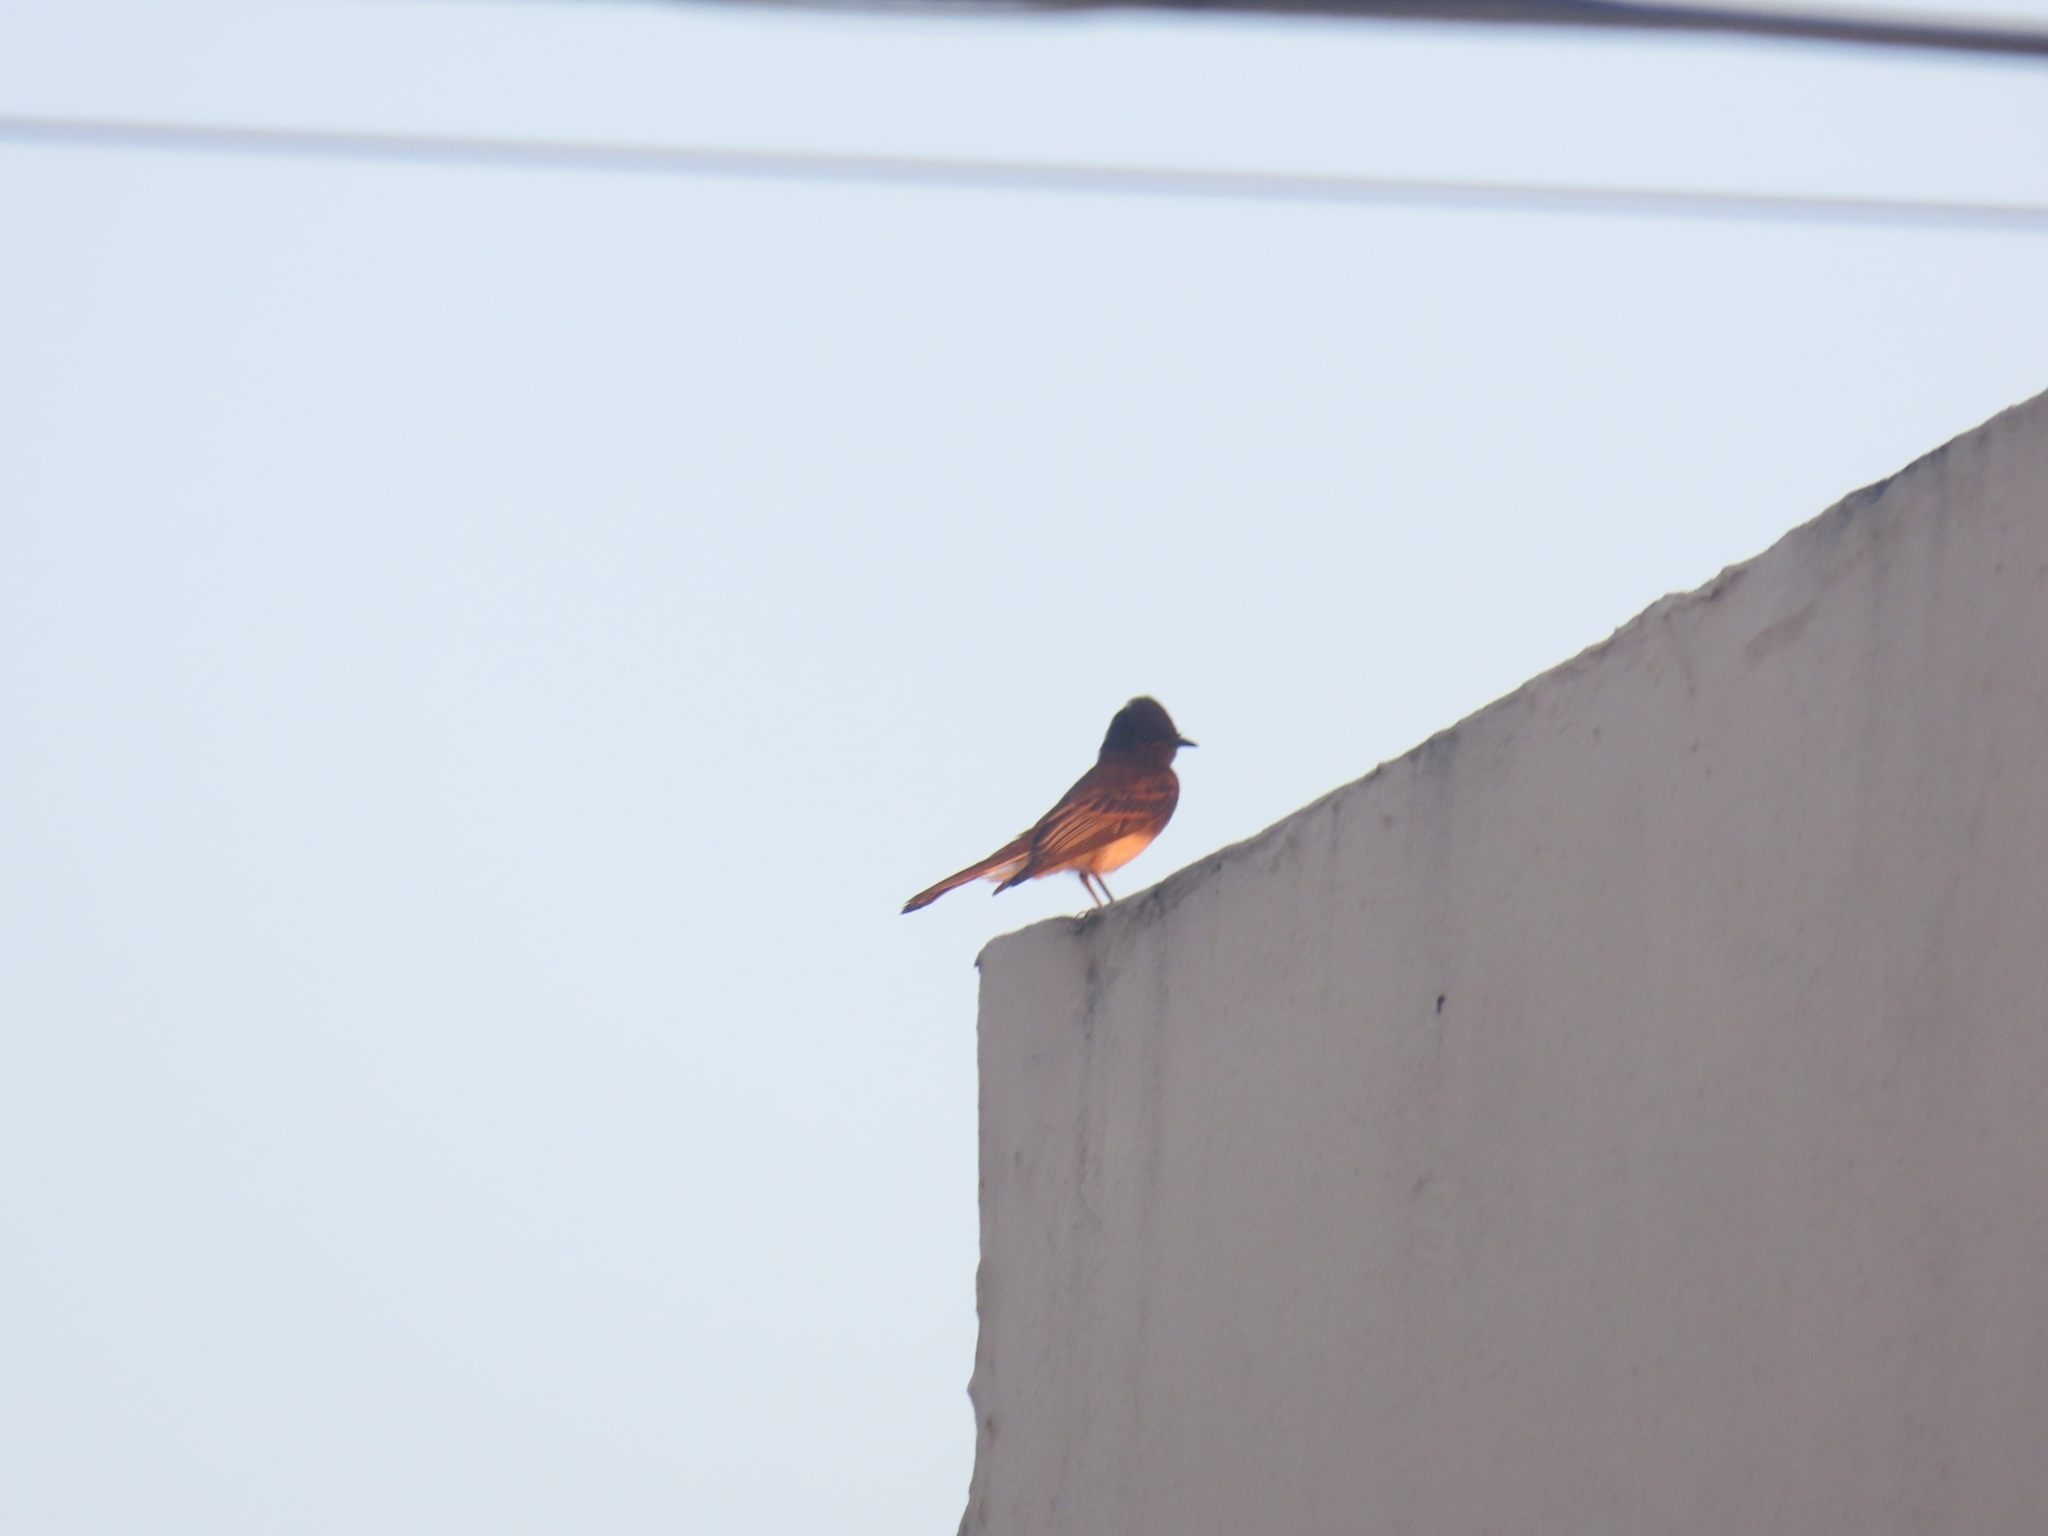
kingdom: Animalia
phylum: Chordata
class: Aves
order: Passeriformes
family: Tyrannidae
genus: Sayornis
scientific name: Sayornis nigricans
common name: Black phoebe
